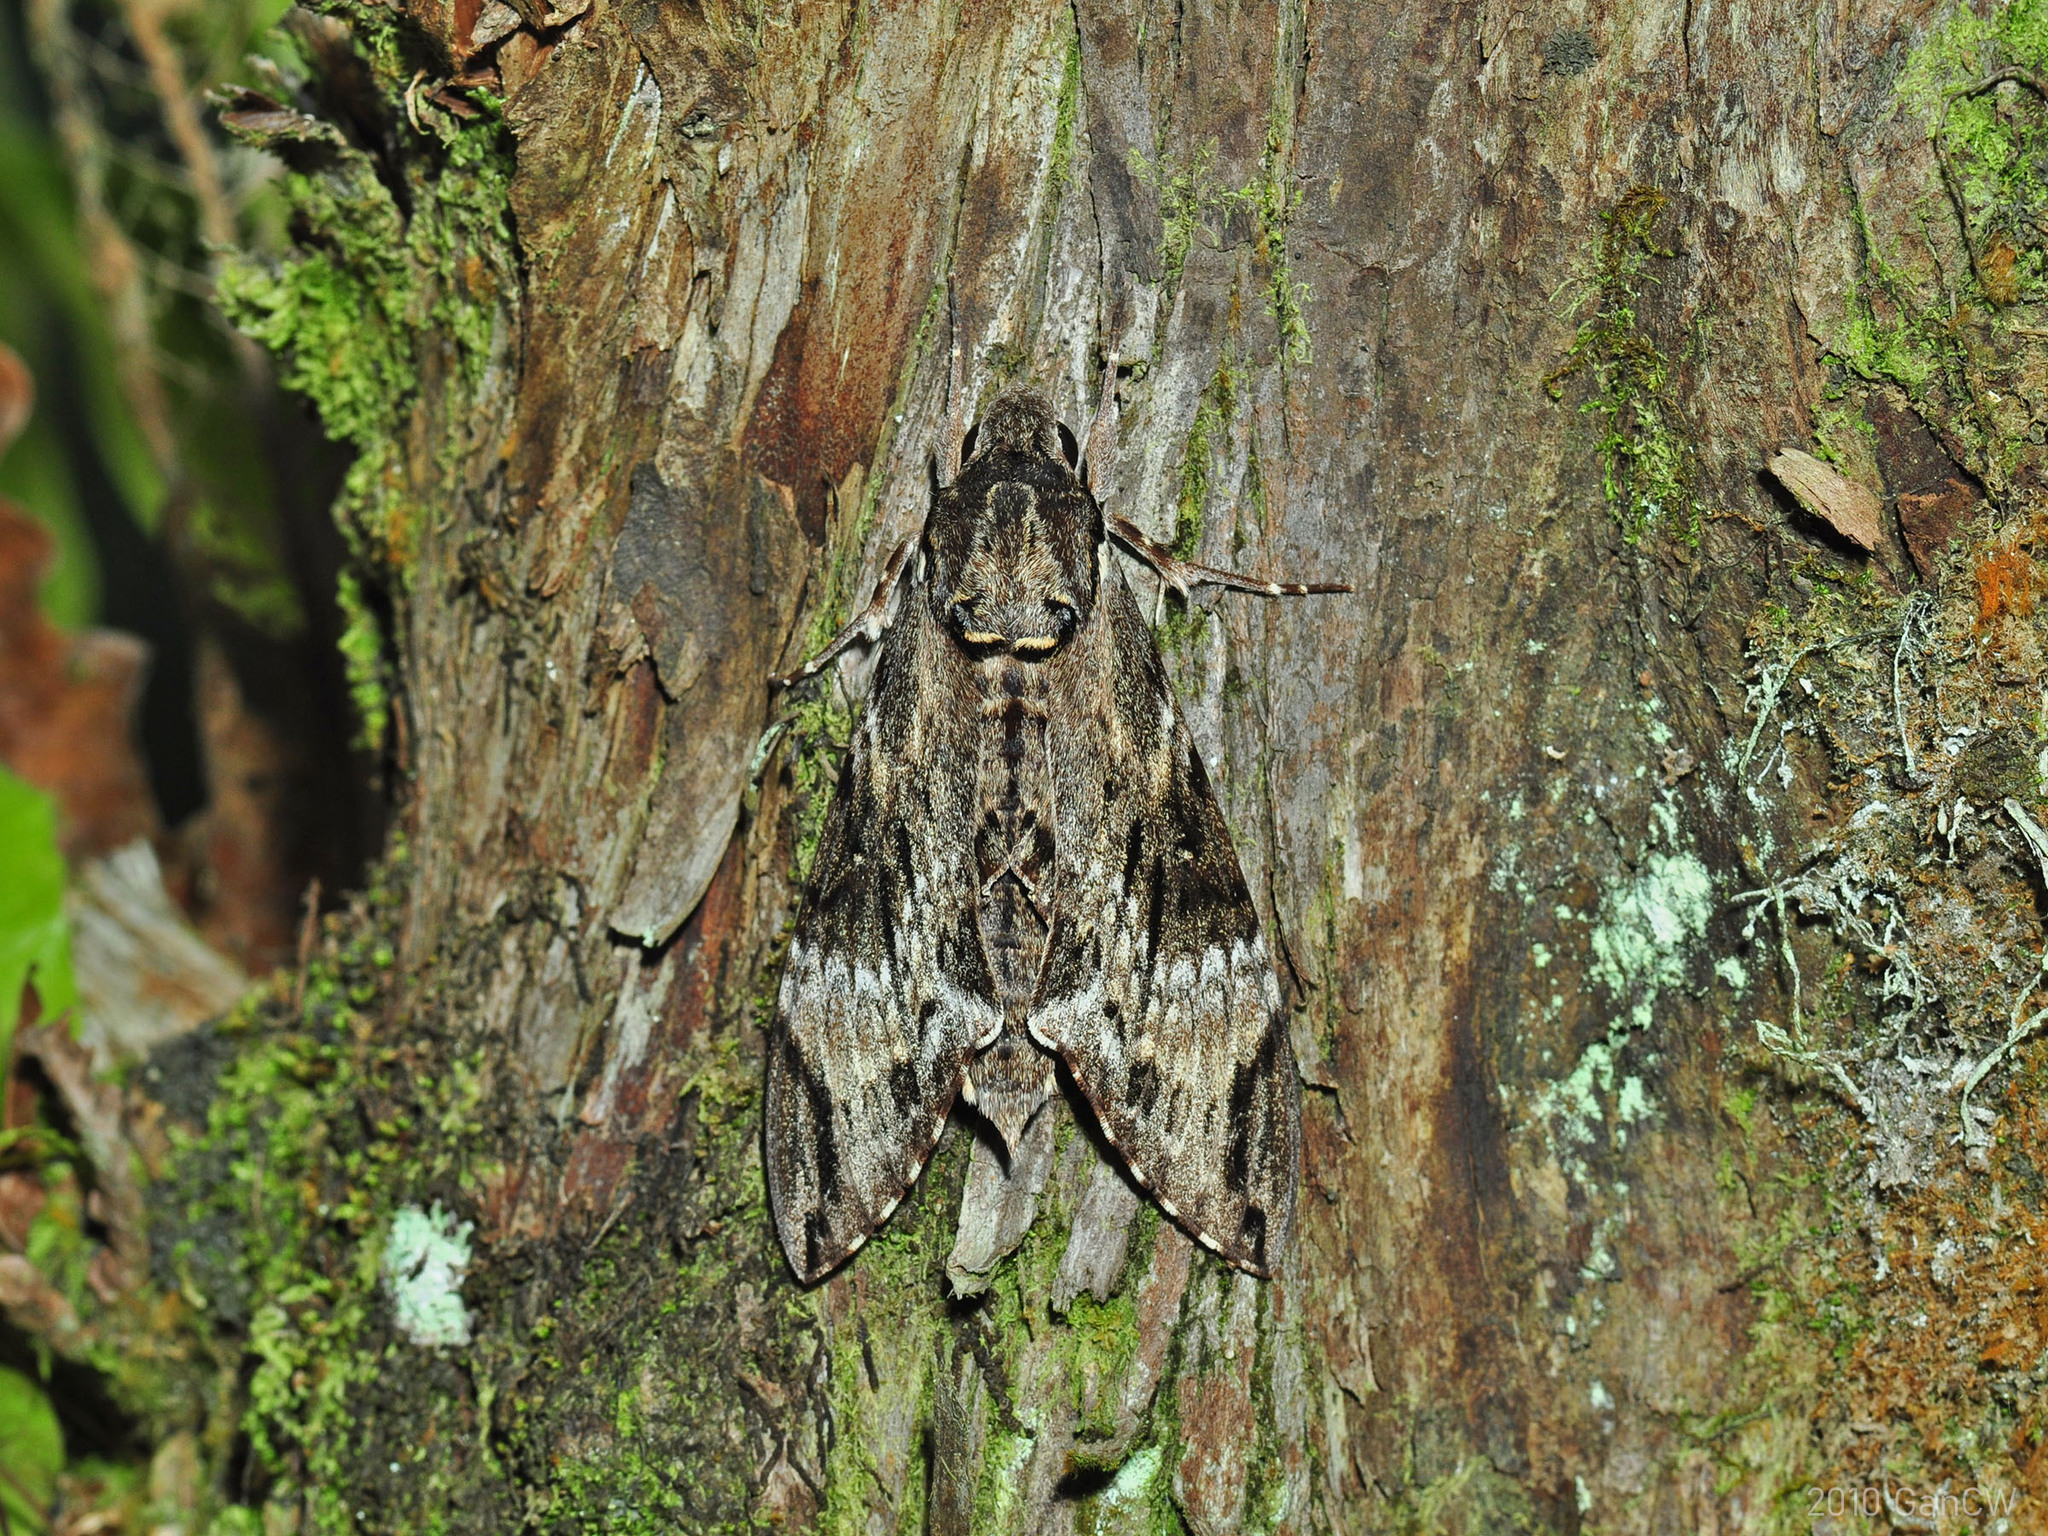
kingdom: Animalia
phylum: Arthropoda
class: Insecta
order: Lepidoptera
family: Sphingidae
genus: Psilogramma
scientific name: Psilogramma discistriga
